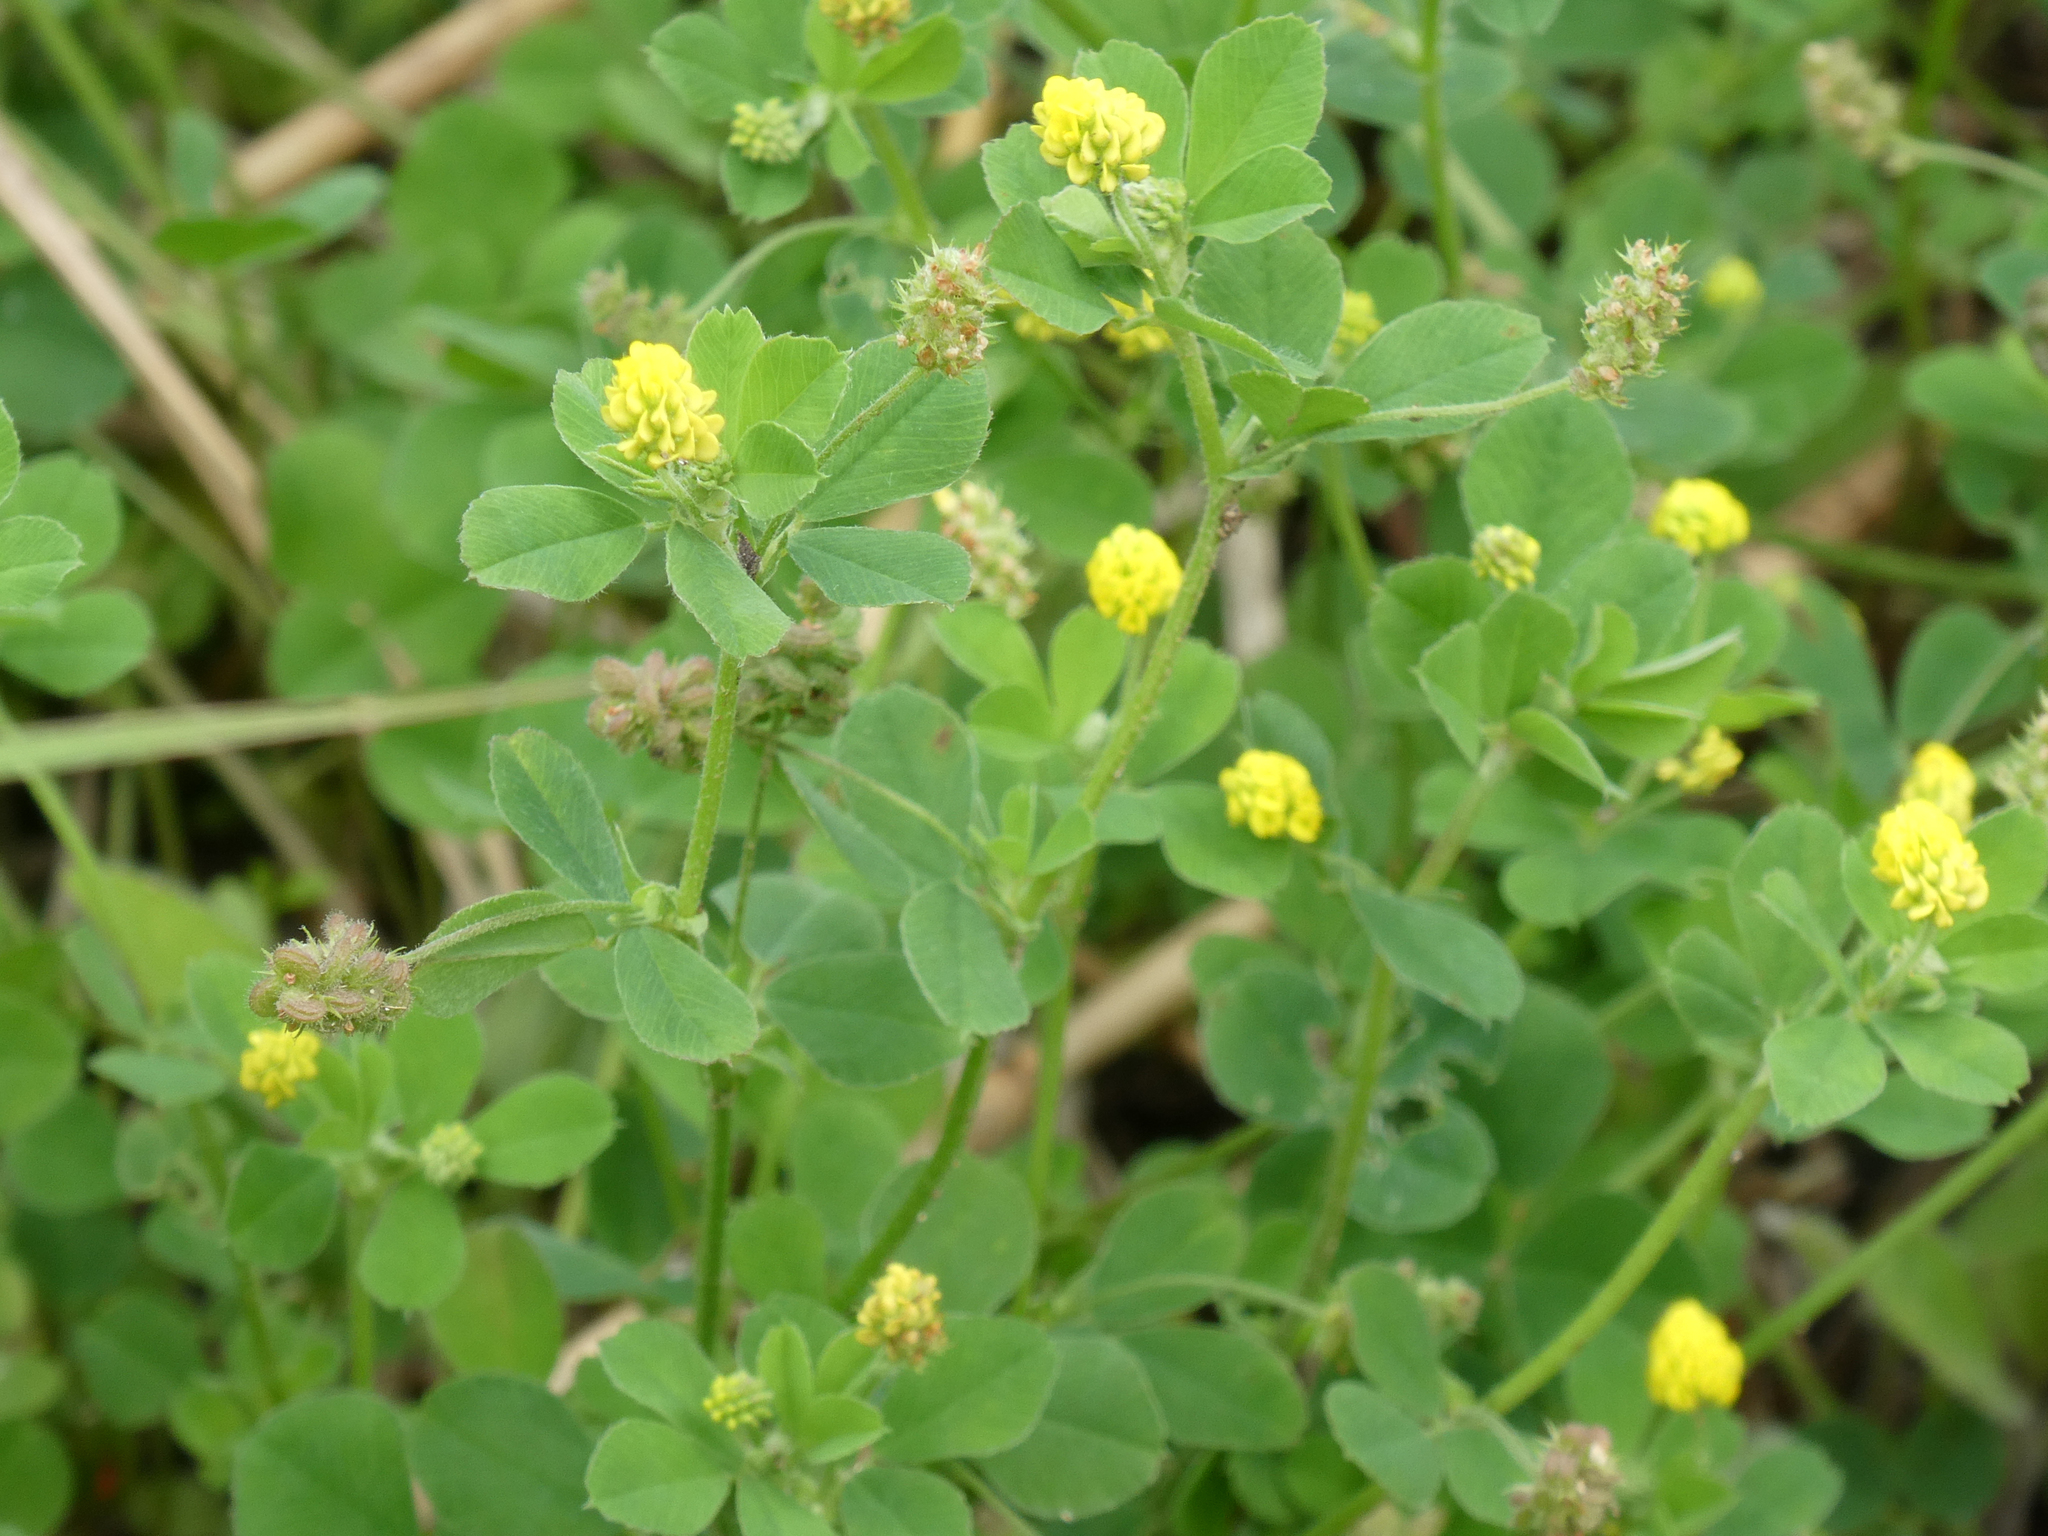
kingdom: Plantae
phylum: Tracheophyta
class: Magnoliopsida
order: Fabales
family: Fabaceae
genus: Medicago
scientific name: Medicago lupulina
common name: Black medick
